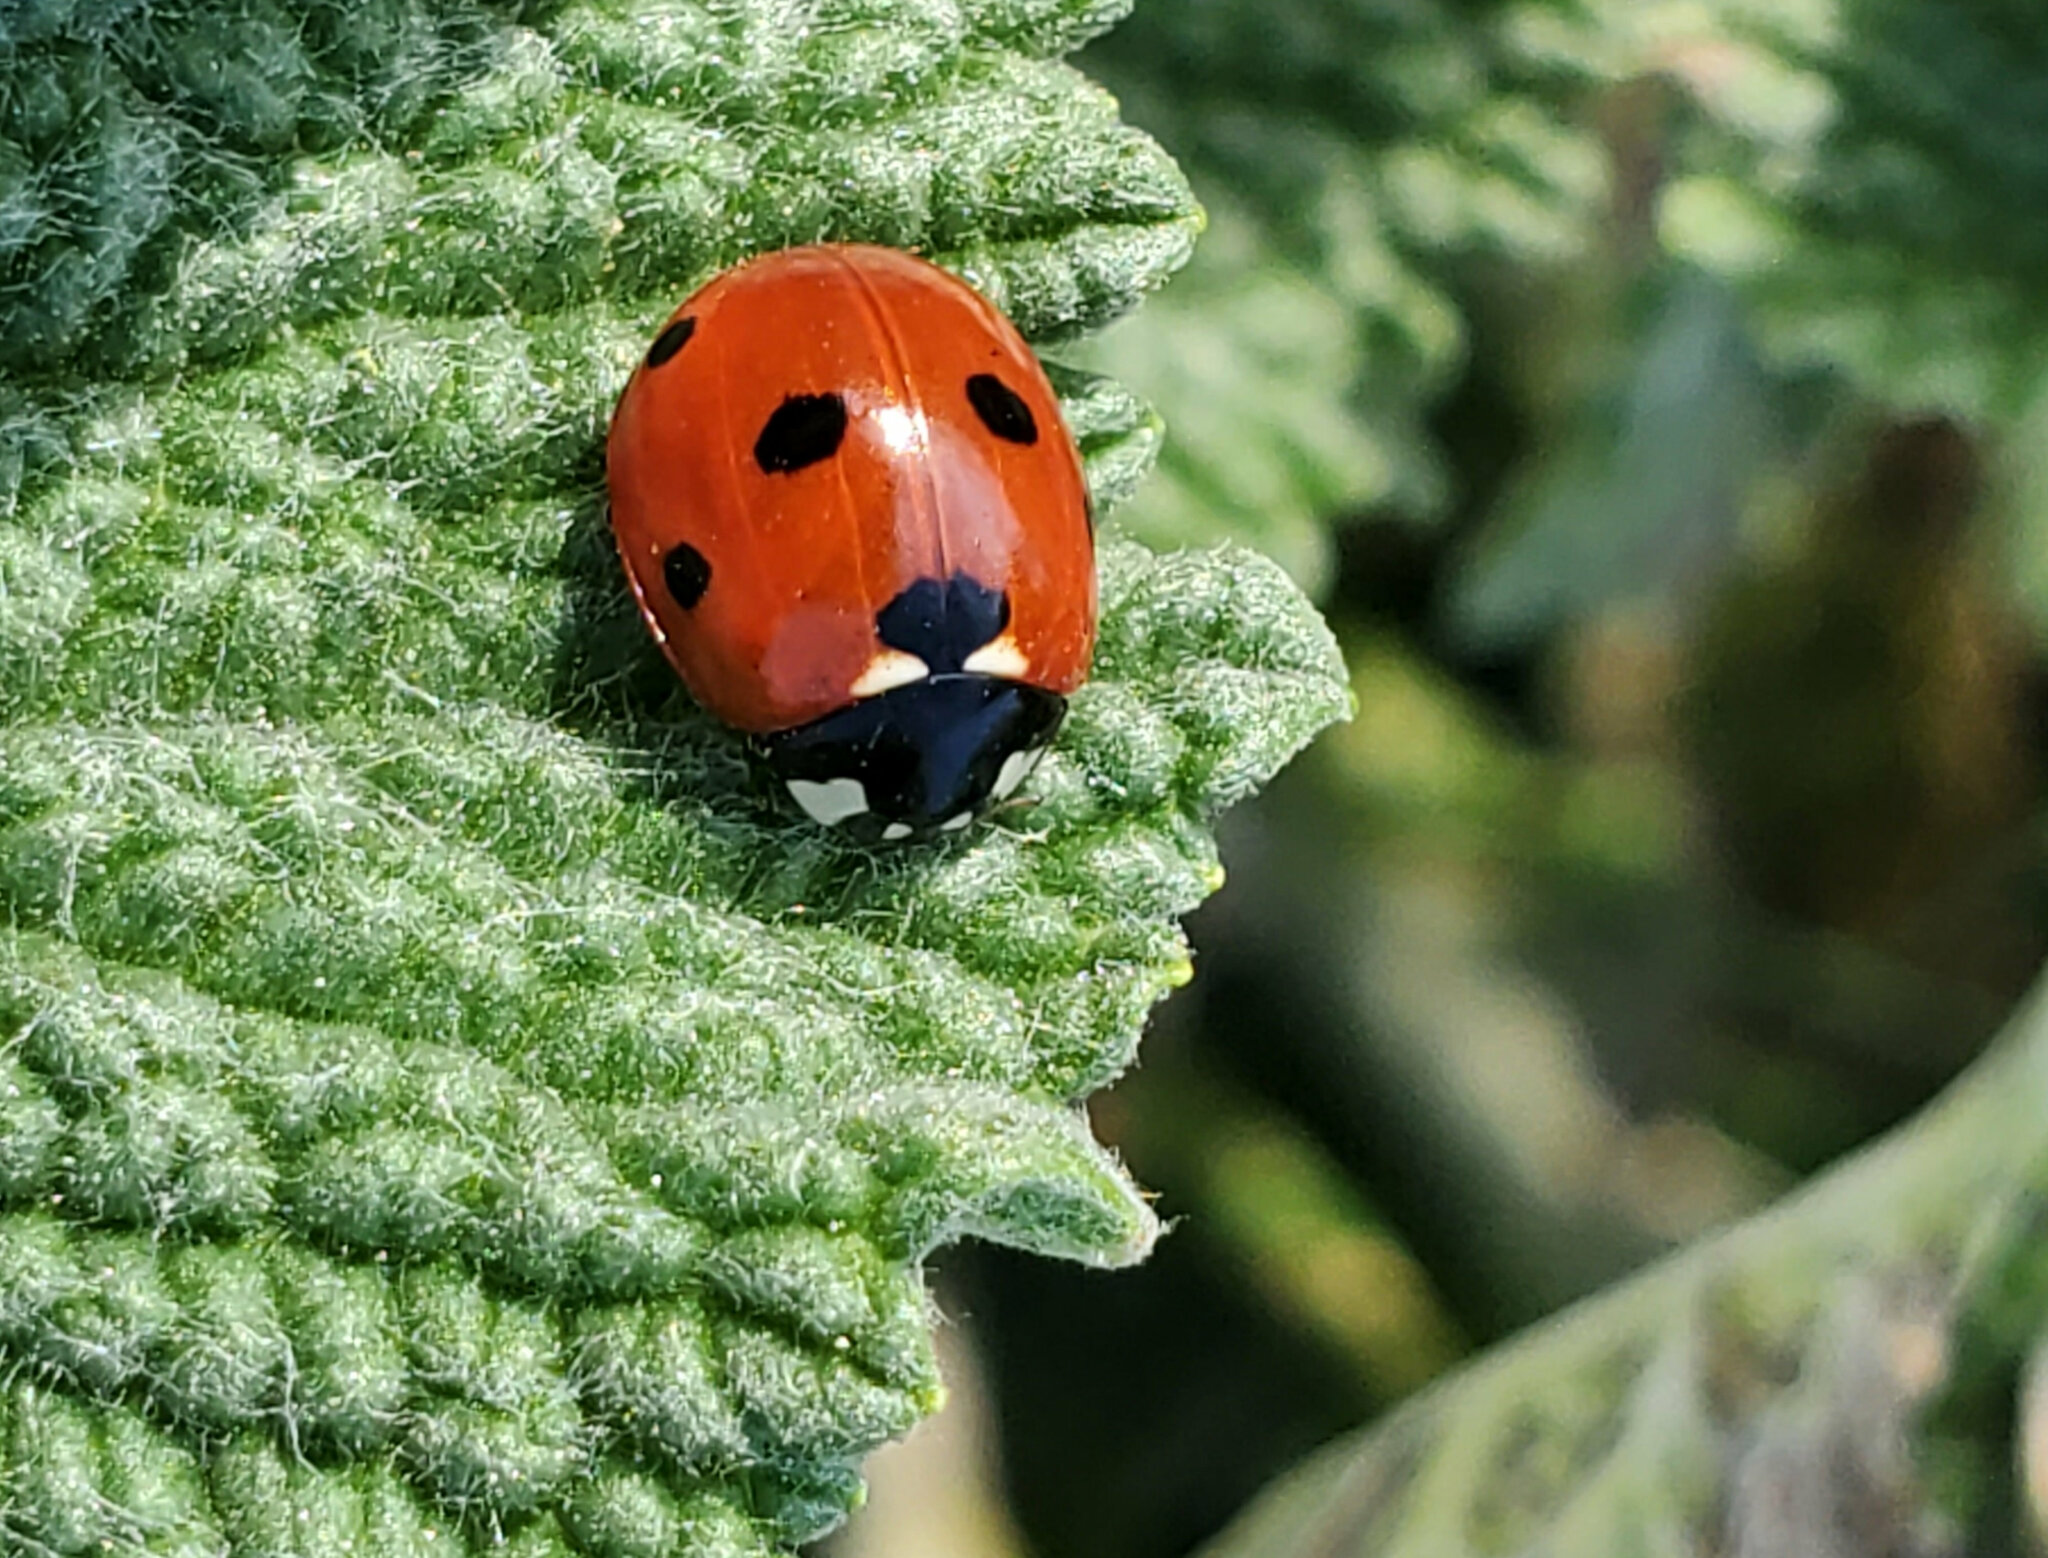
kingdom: Animalia
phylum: Arthropoda
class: Insecta
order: Coleoptera
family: Coccinellidae
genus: Coccinella
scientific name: Coccinella septempunctata
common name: Sevenspotted lady beetle
